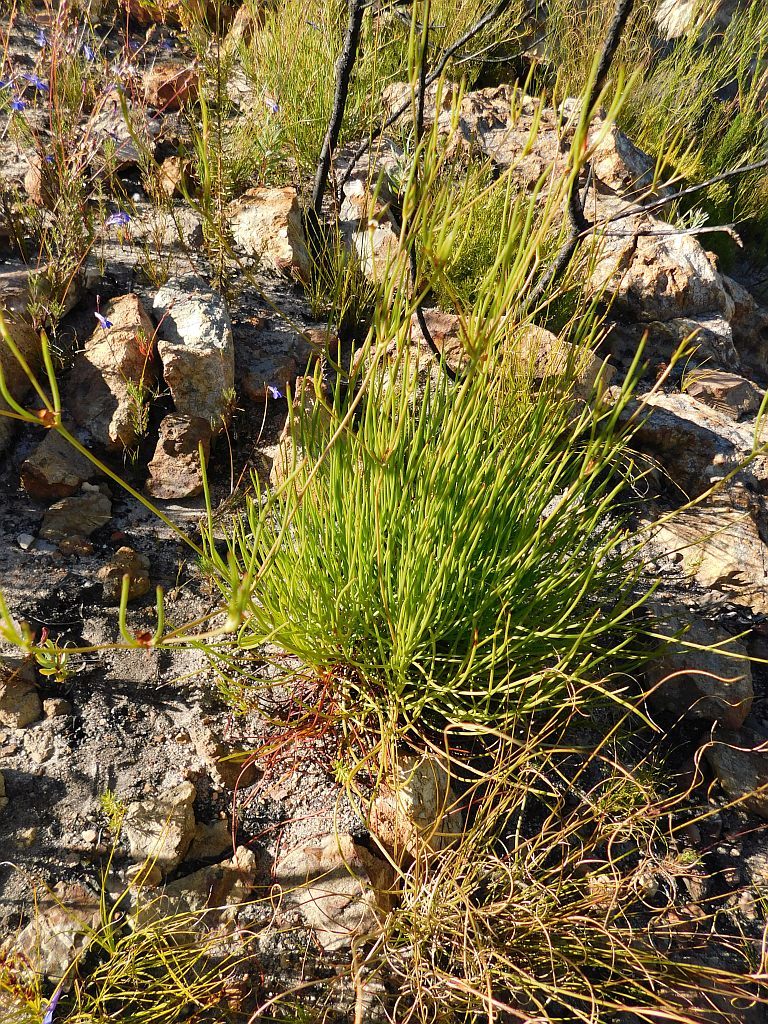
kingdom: Plantae
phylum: Tracheophyta
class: Magnoliopsida
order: Apiales
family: Apiaceae
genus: Centella
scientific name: Centella thesioides
